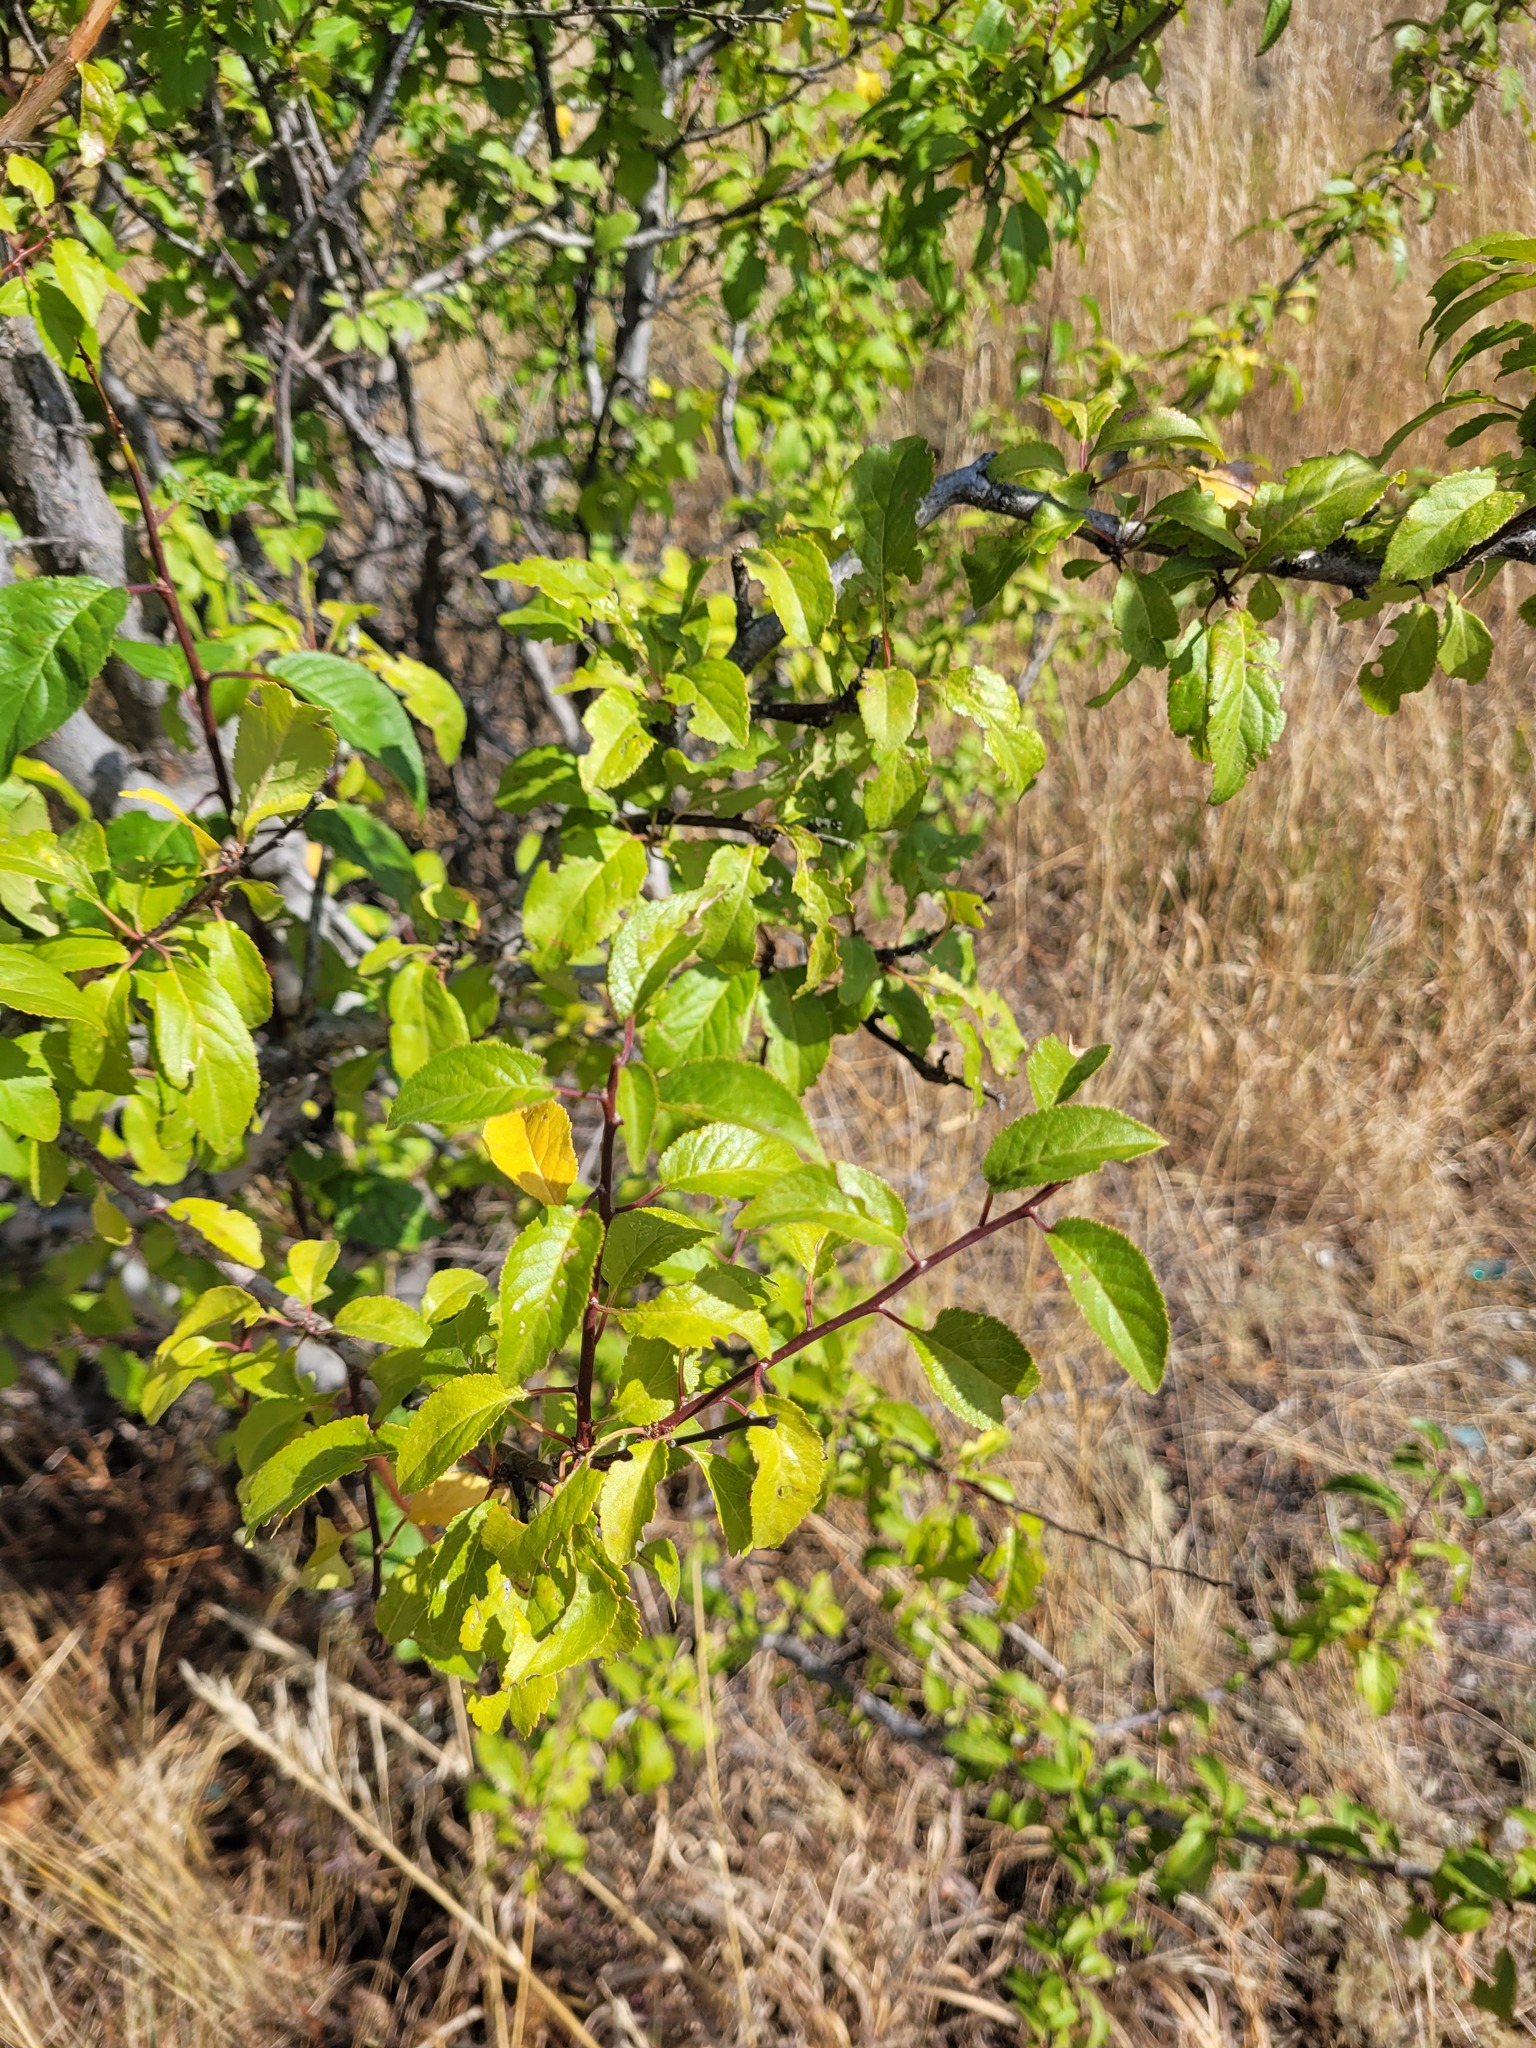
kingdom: Plantae
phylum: Tracheophyta
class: Magnoliopsida
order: Rosales
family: Rosaceae
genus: Prunus
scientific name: Prunus cerasifera
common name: Cherry plum
